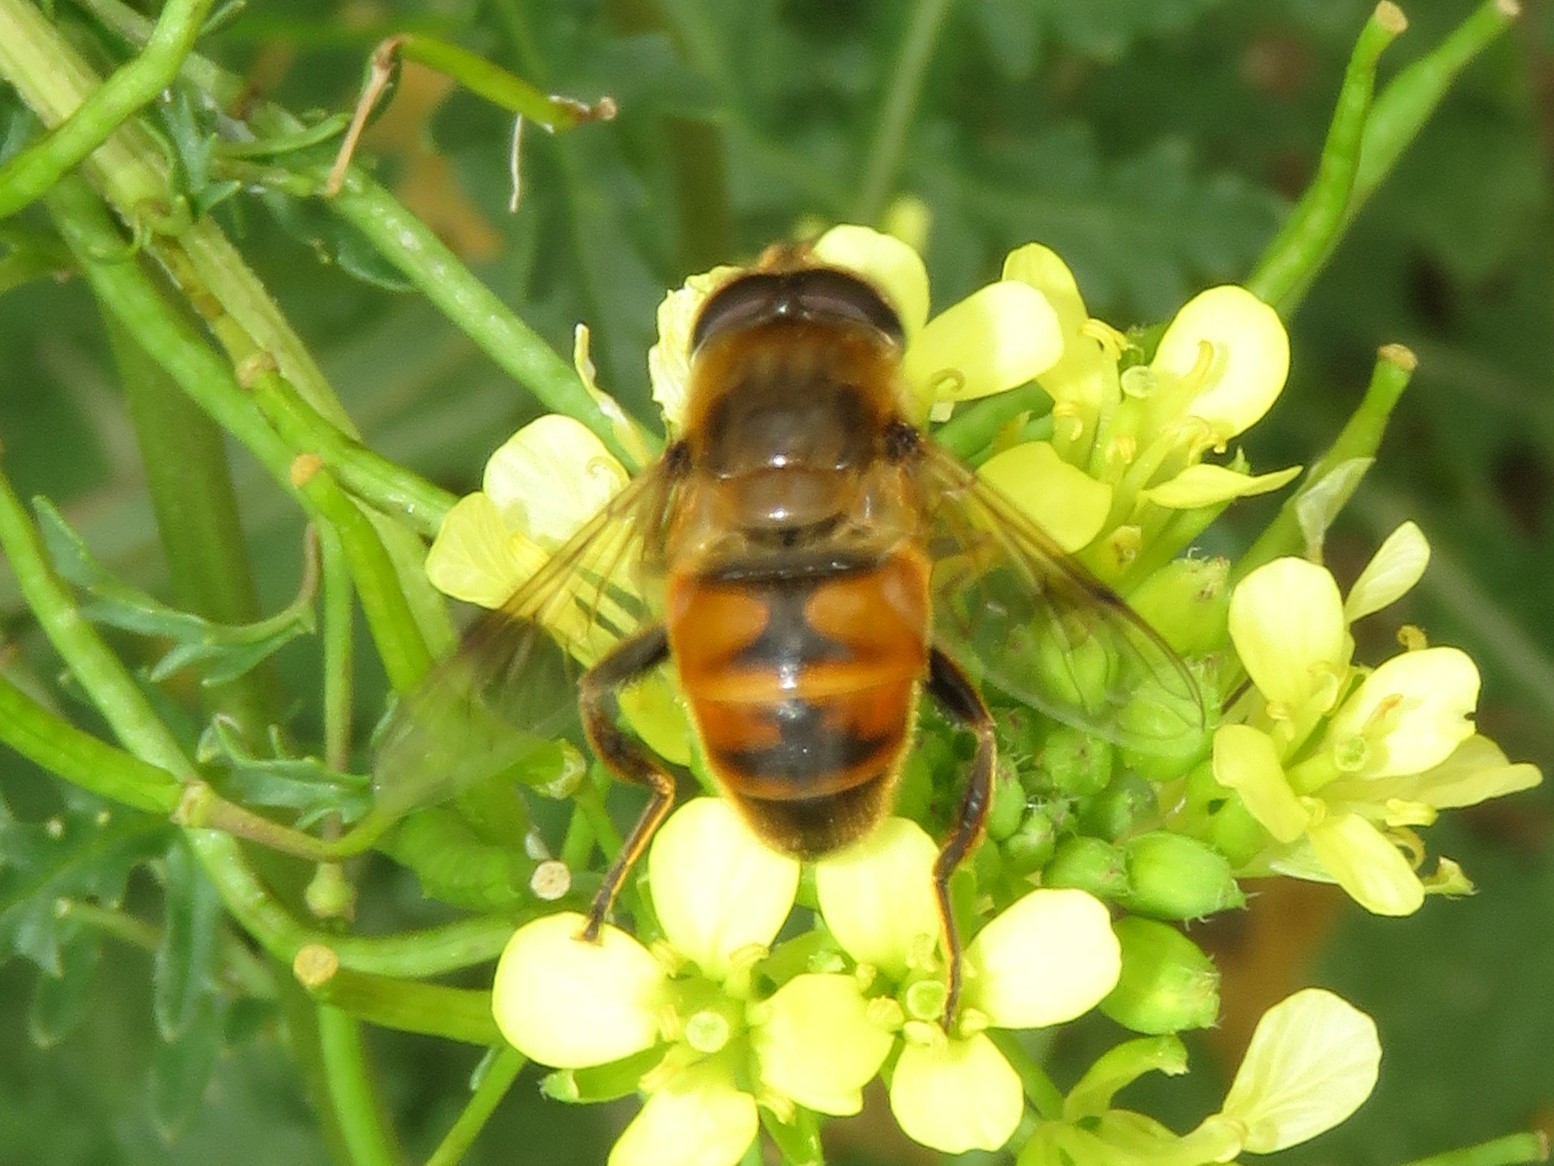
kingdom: Animalia
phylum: Arthropoda
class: Insecta
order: Diptera
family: Syrphidae
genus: Eristalis
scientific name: Eristalis tenax
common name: Drone fly
